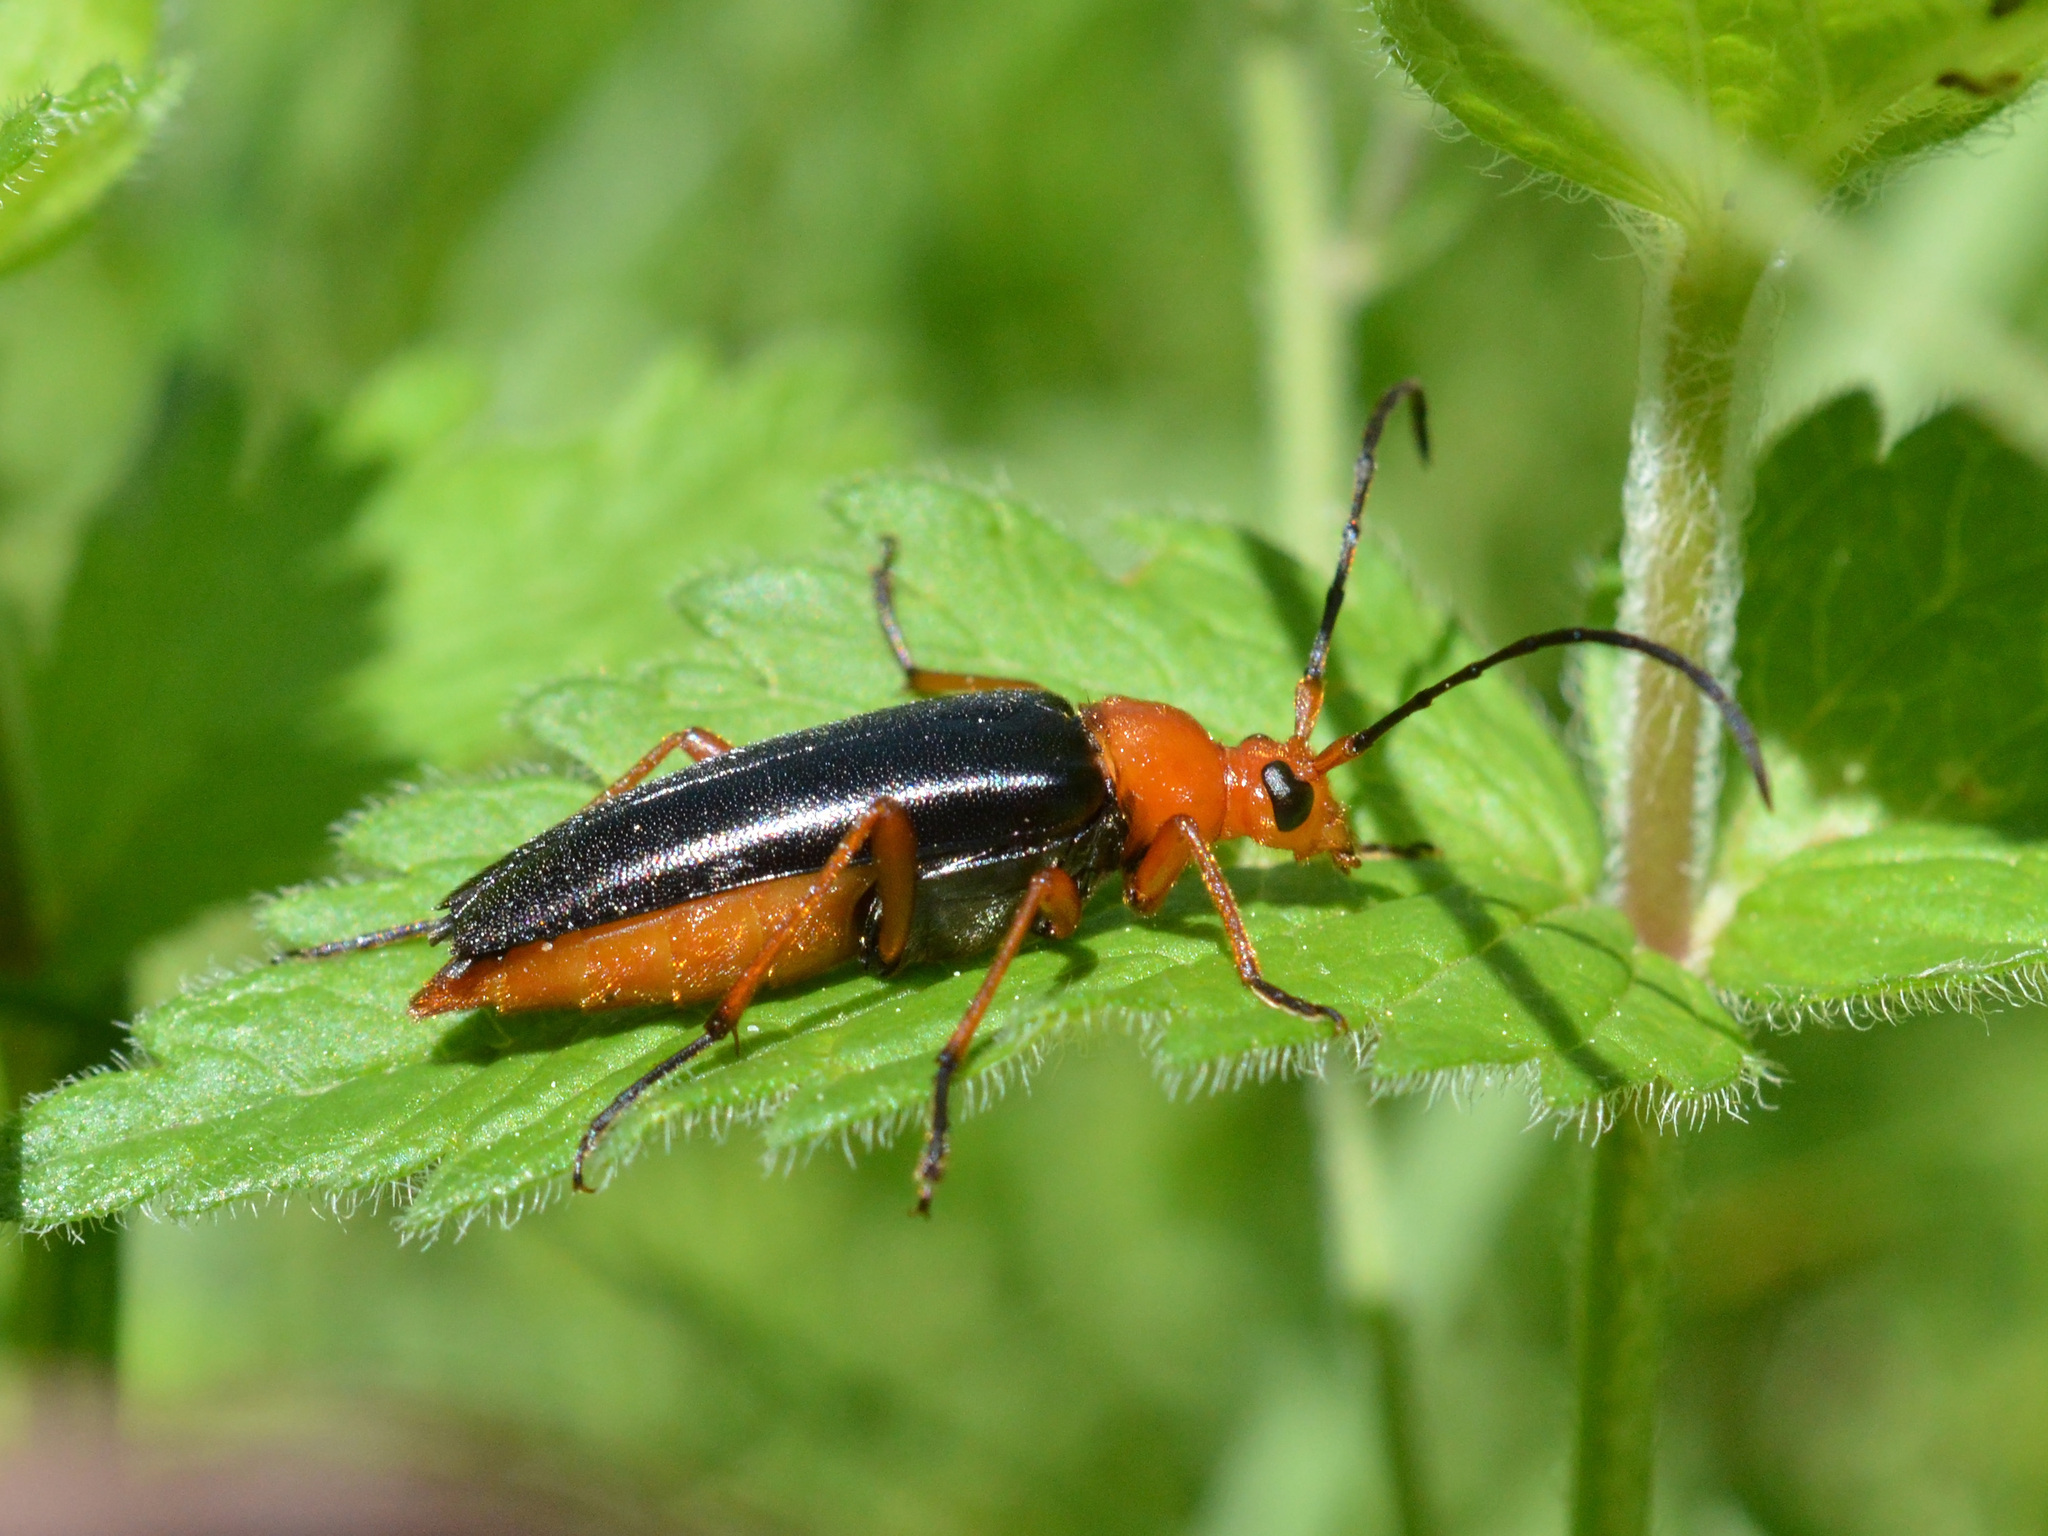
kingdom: Animalia
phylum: Arthropoda
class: Insecta
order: Coleoptera
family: Cerambycidae
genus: Pedostrangalia
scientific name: Pedostrangalia revestita
